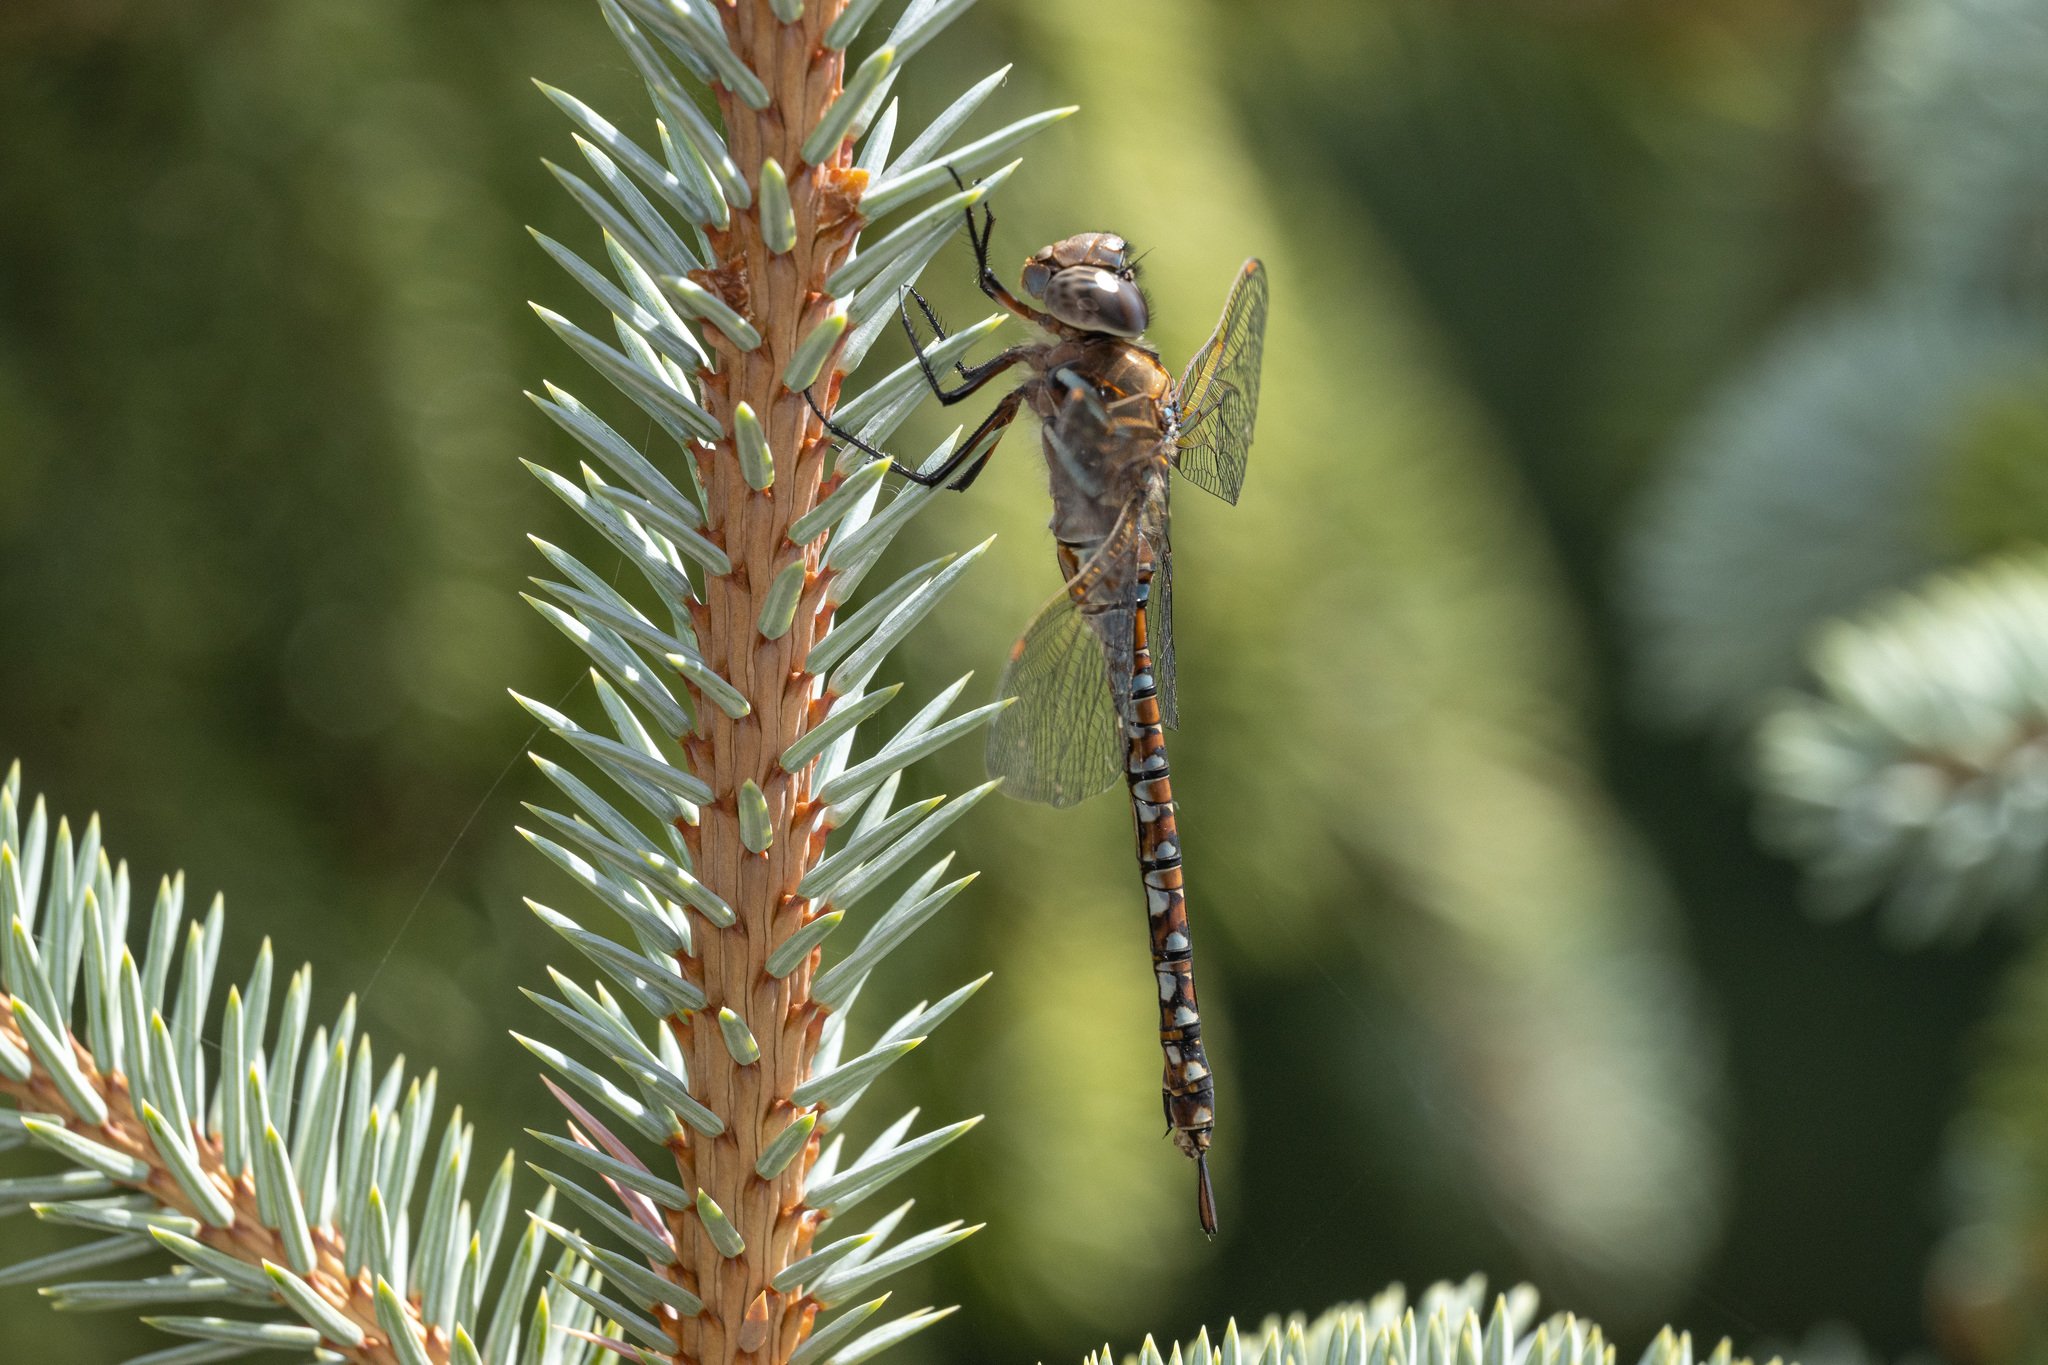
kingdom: Animalia
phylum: Arthropoda
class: Insecta
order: Odonata
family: Aeshnidae
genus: Rhionaeschna
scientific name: Rhionaeschna multicolor
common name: Blue-eyed darner
